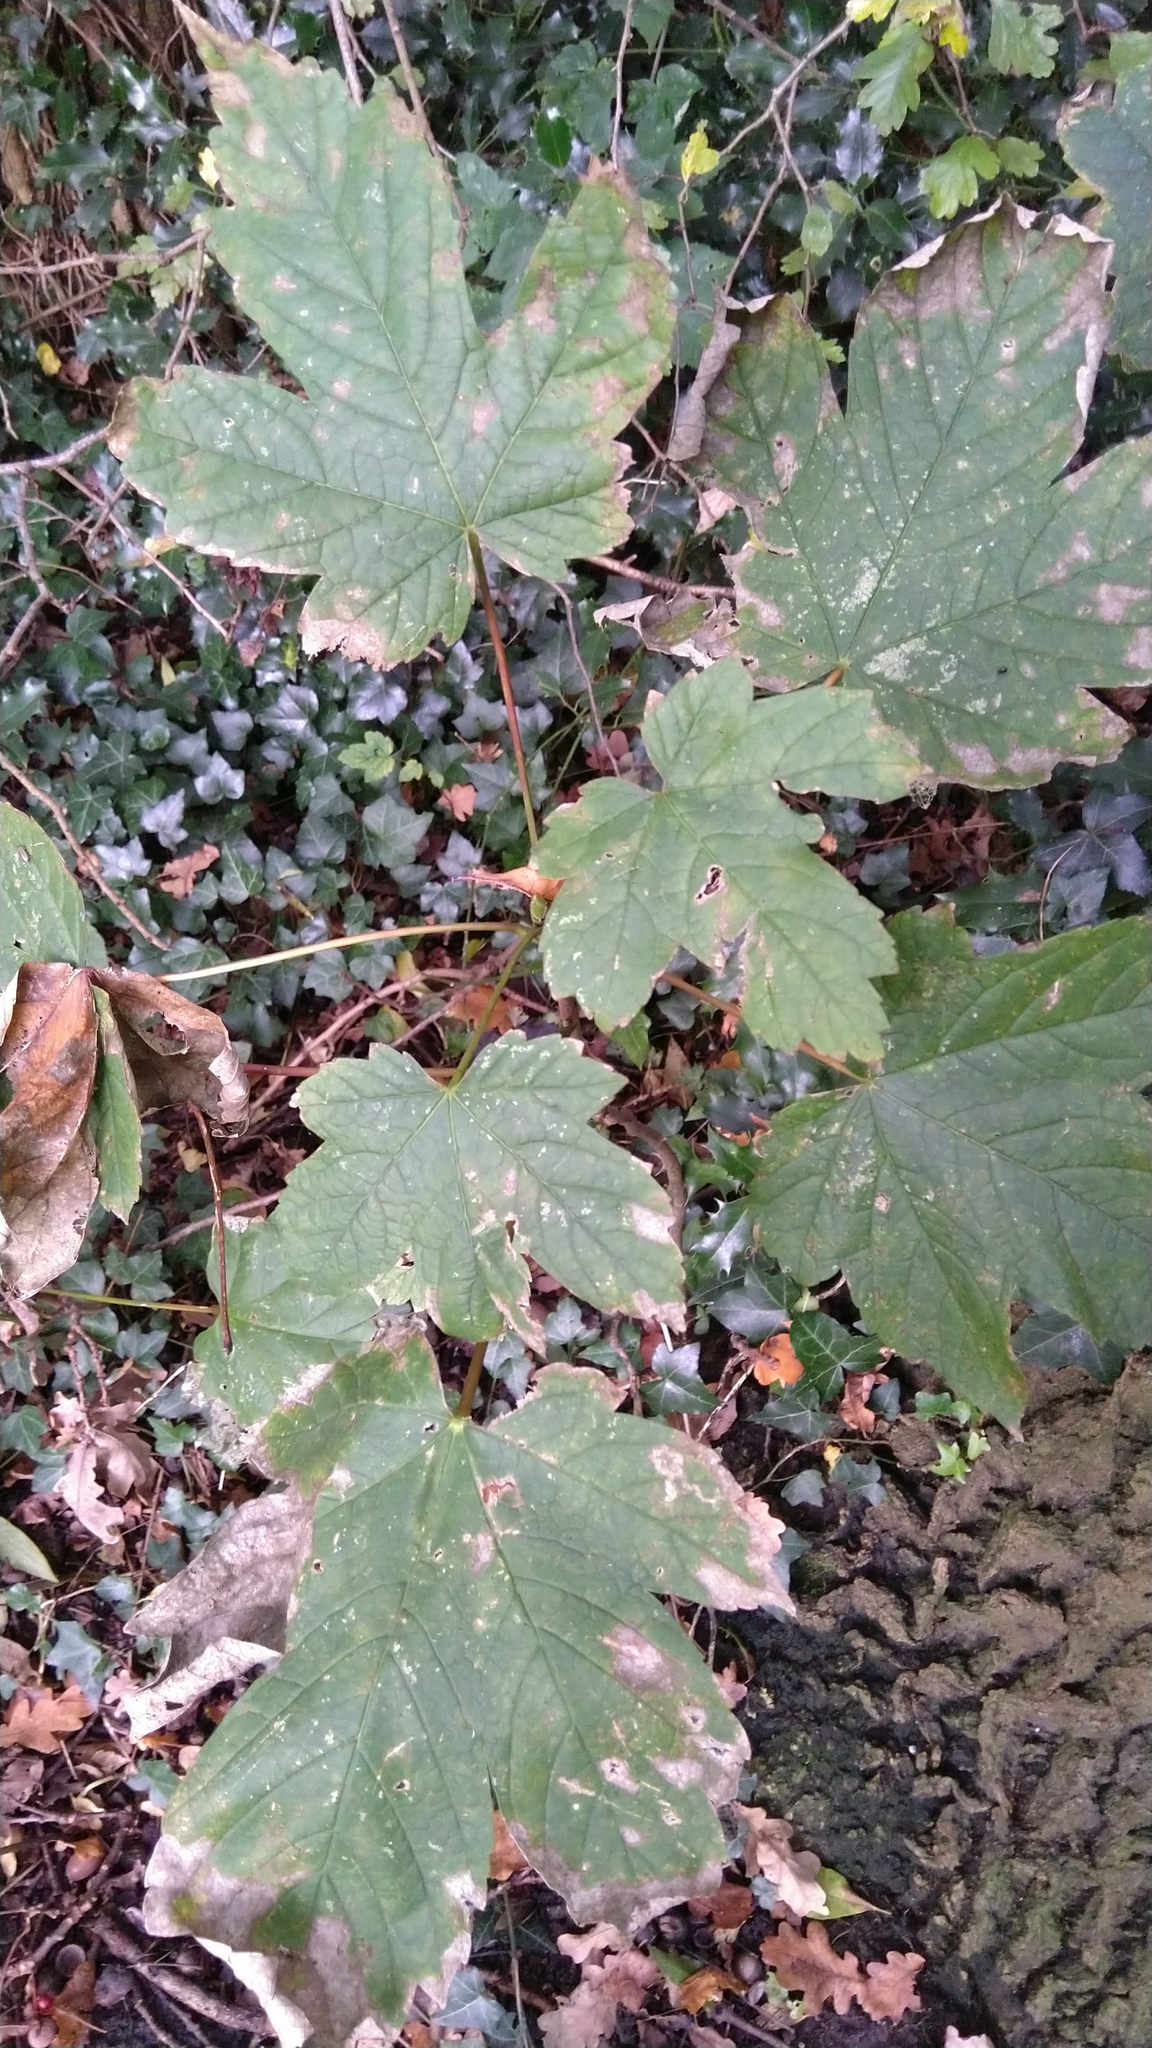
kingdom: Plantae
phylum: Tracheophyta
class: Magnoliopsida
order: Sapindales
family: Sapindaceae
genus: Acer
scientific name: Acer pseudoplatanus
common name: Sycamore
